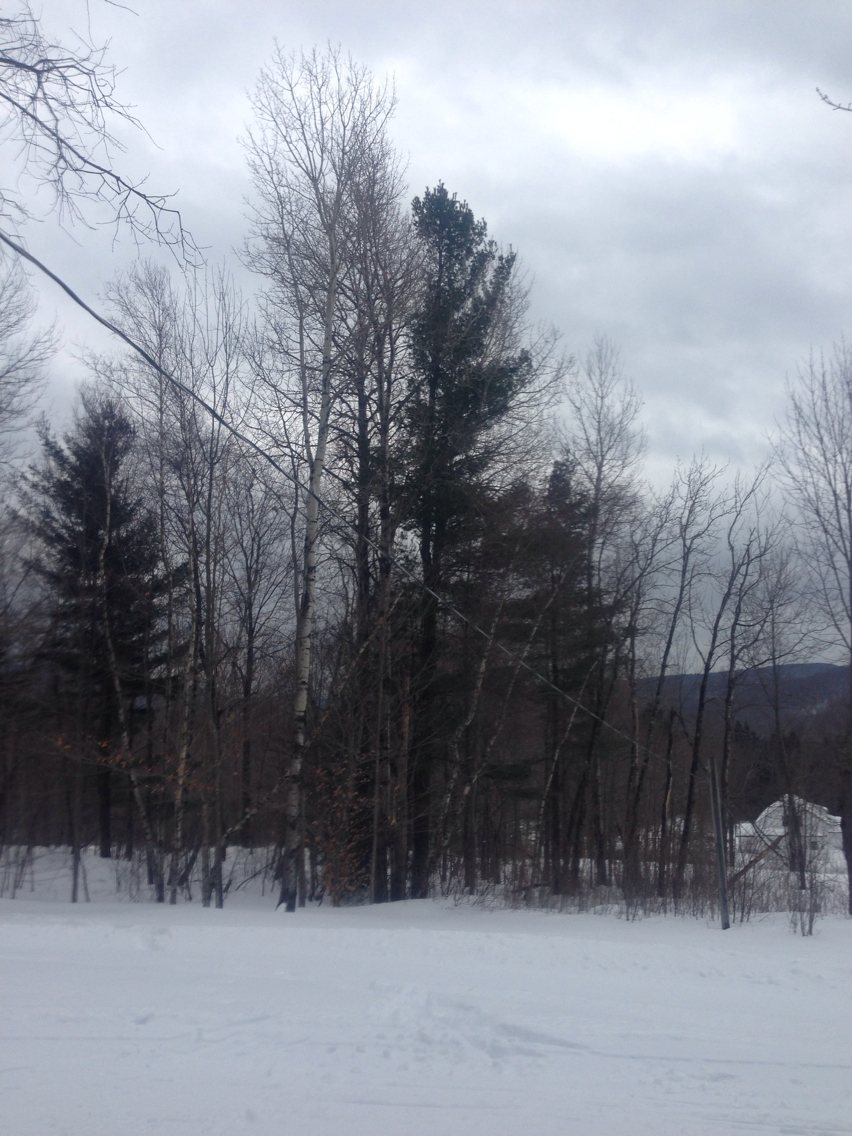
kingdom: Plantae
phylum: Tracheophyta
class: Pinopsida
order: Pinales
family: Pinaceae
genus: Pinus
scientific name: Pinus strobus
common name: Weymouth pine
